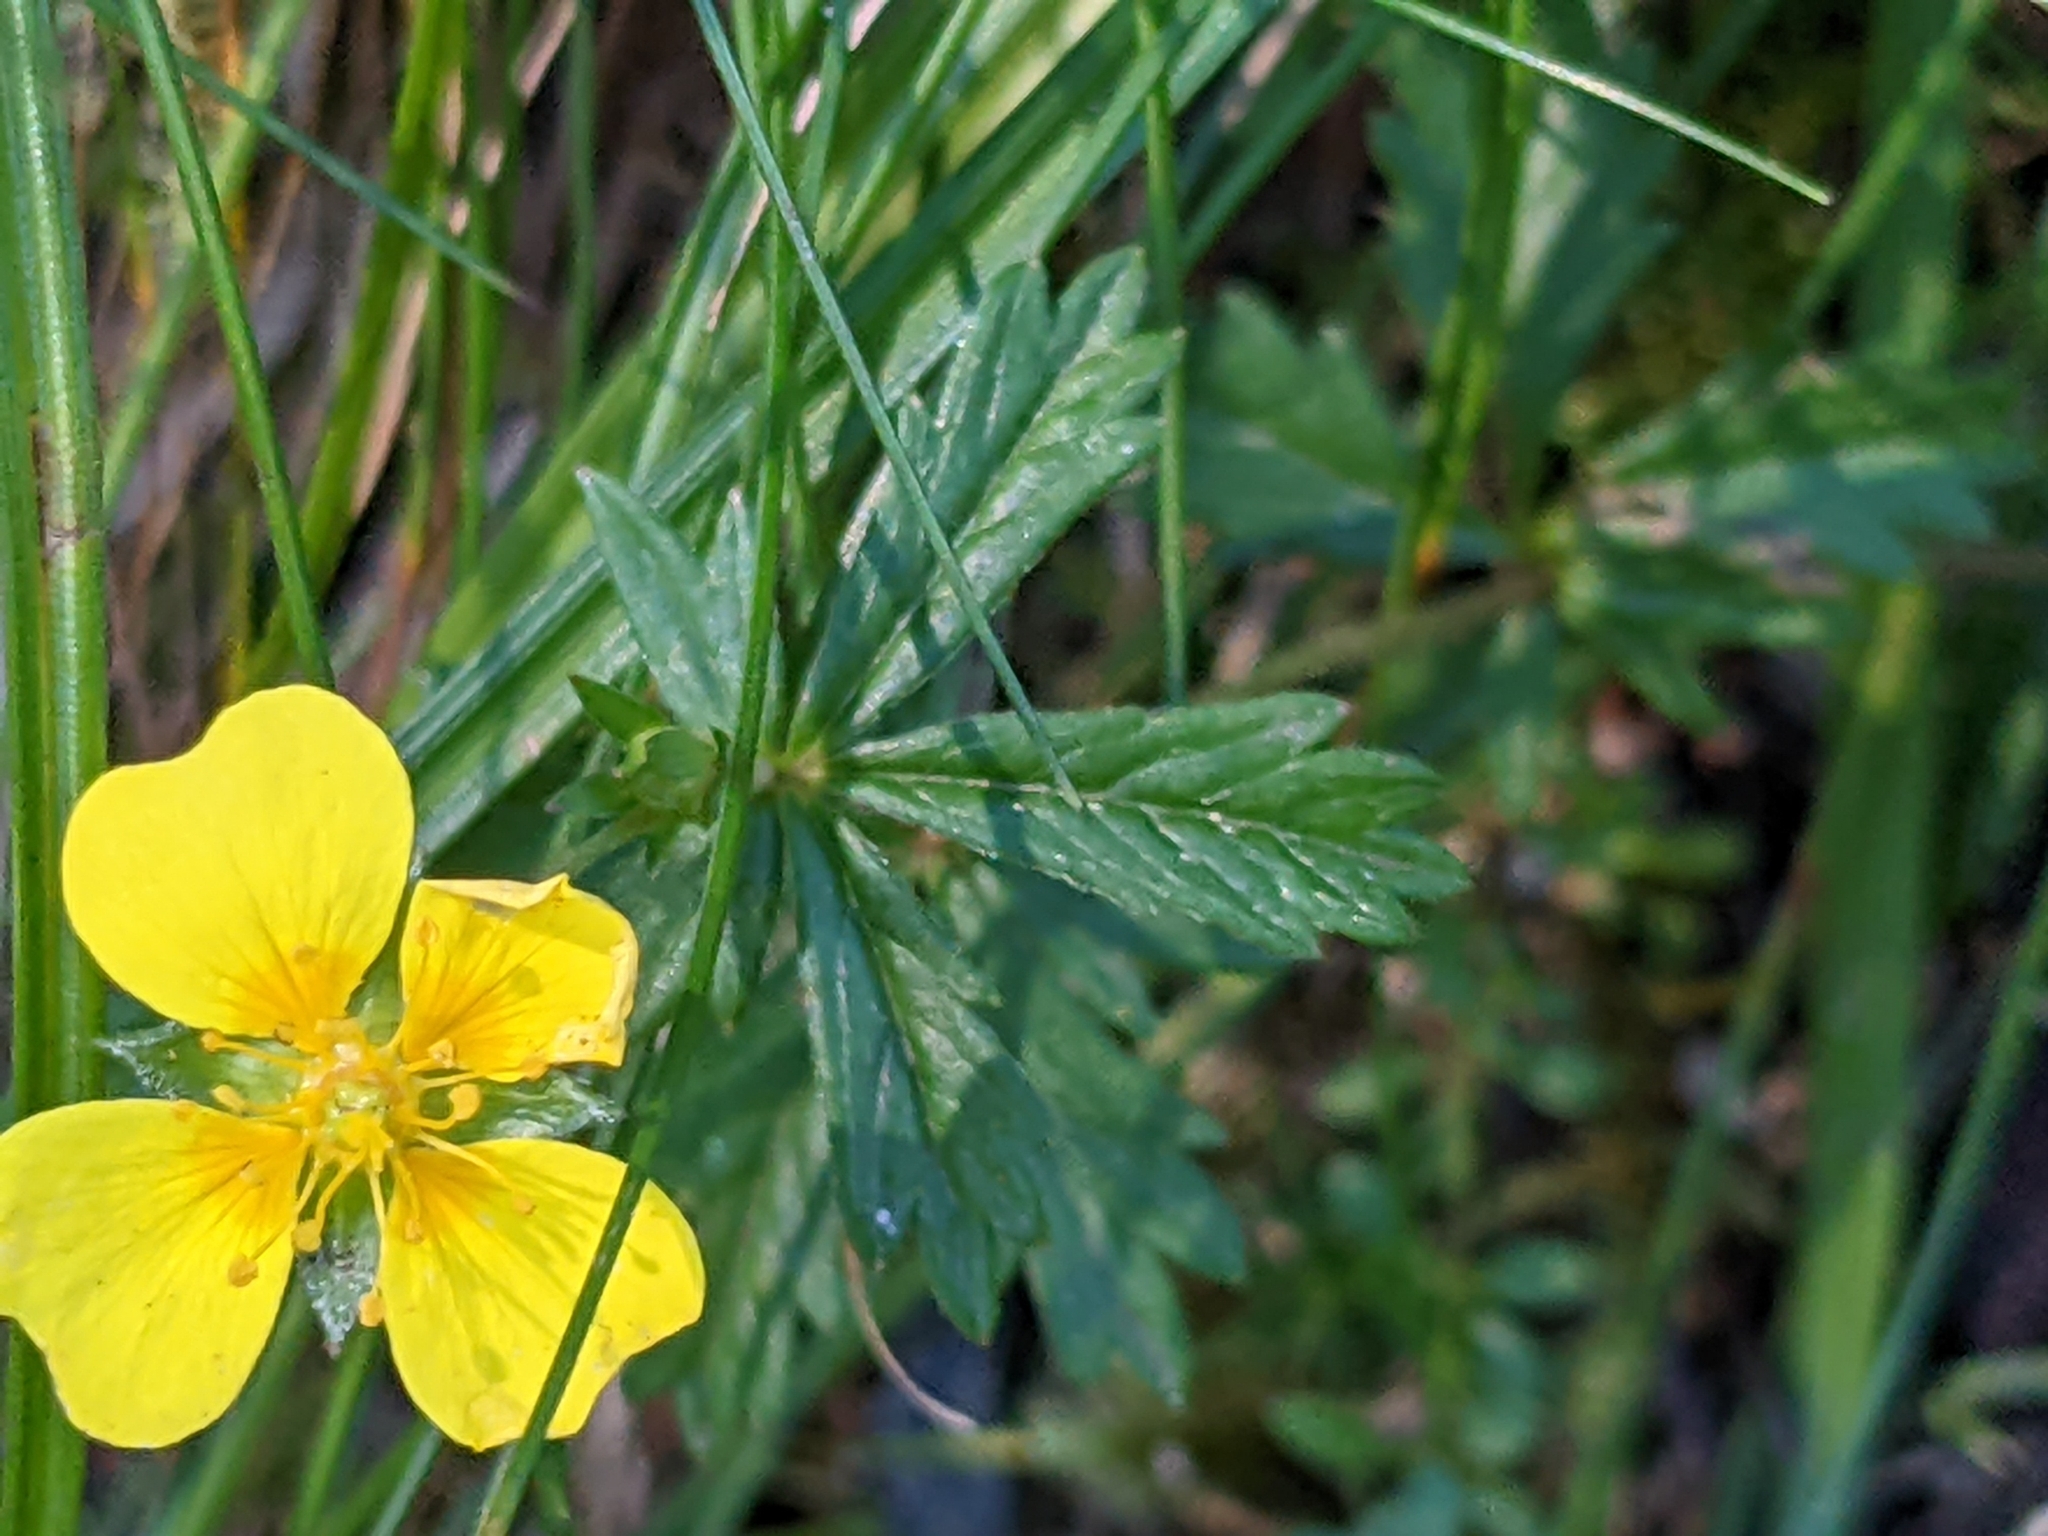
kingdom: Plantae
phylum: Tracheophyta
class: Magnoliopsida
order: Rosales
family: Rosaceae
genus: Potentilla
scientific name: Potentilla erecta
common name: Tormentil
